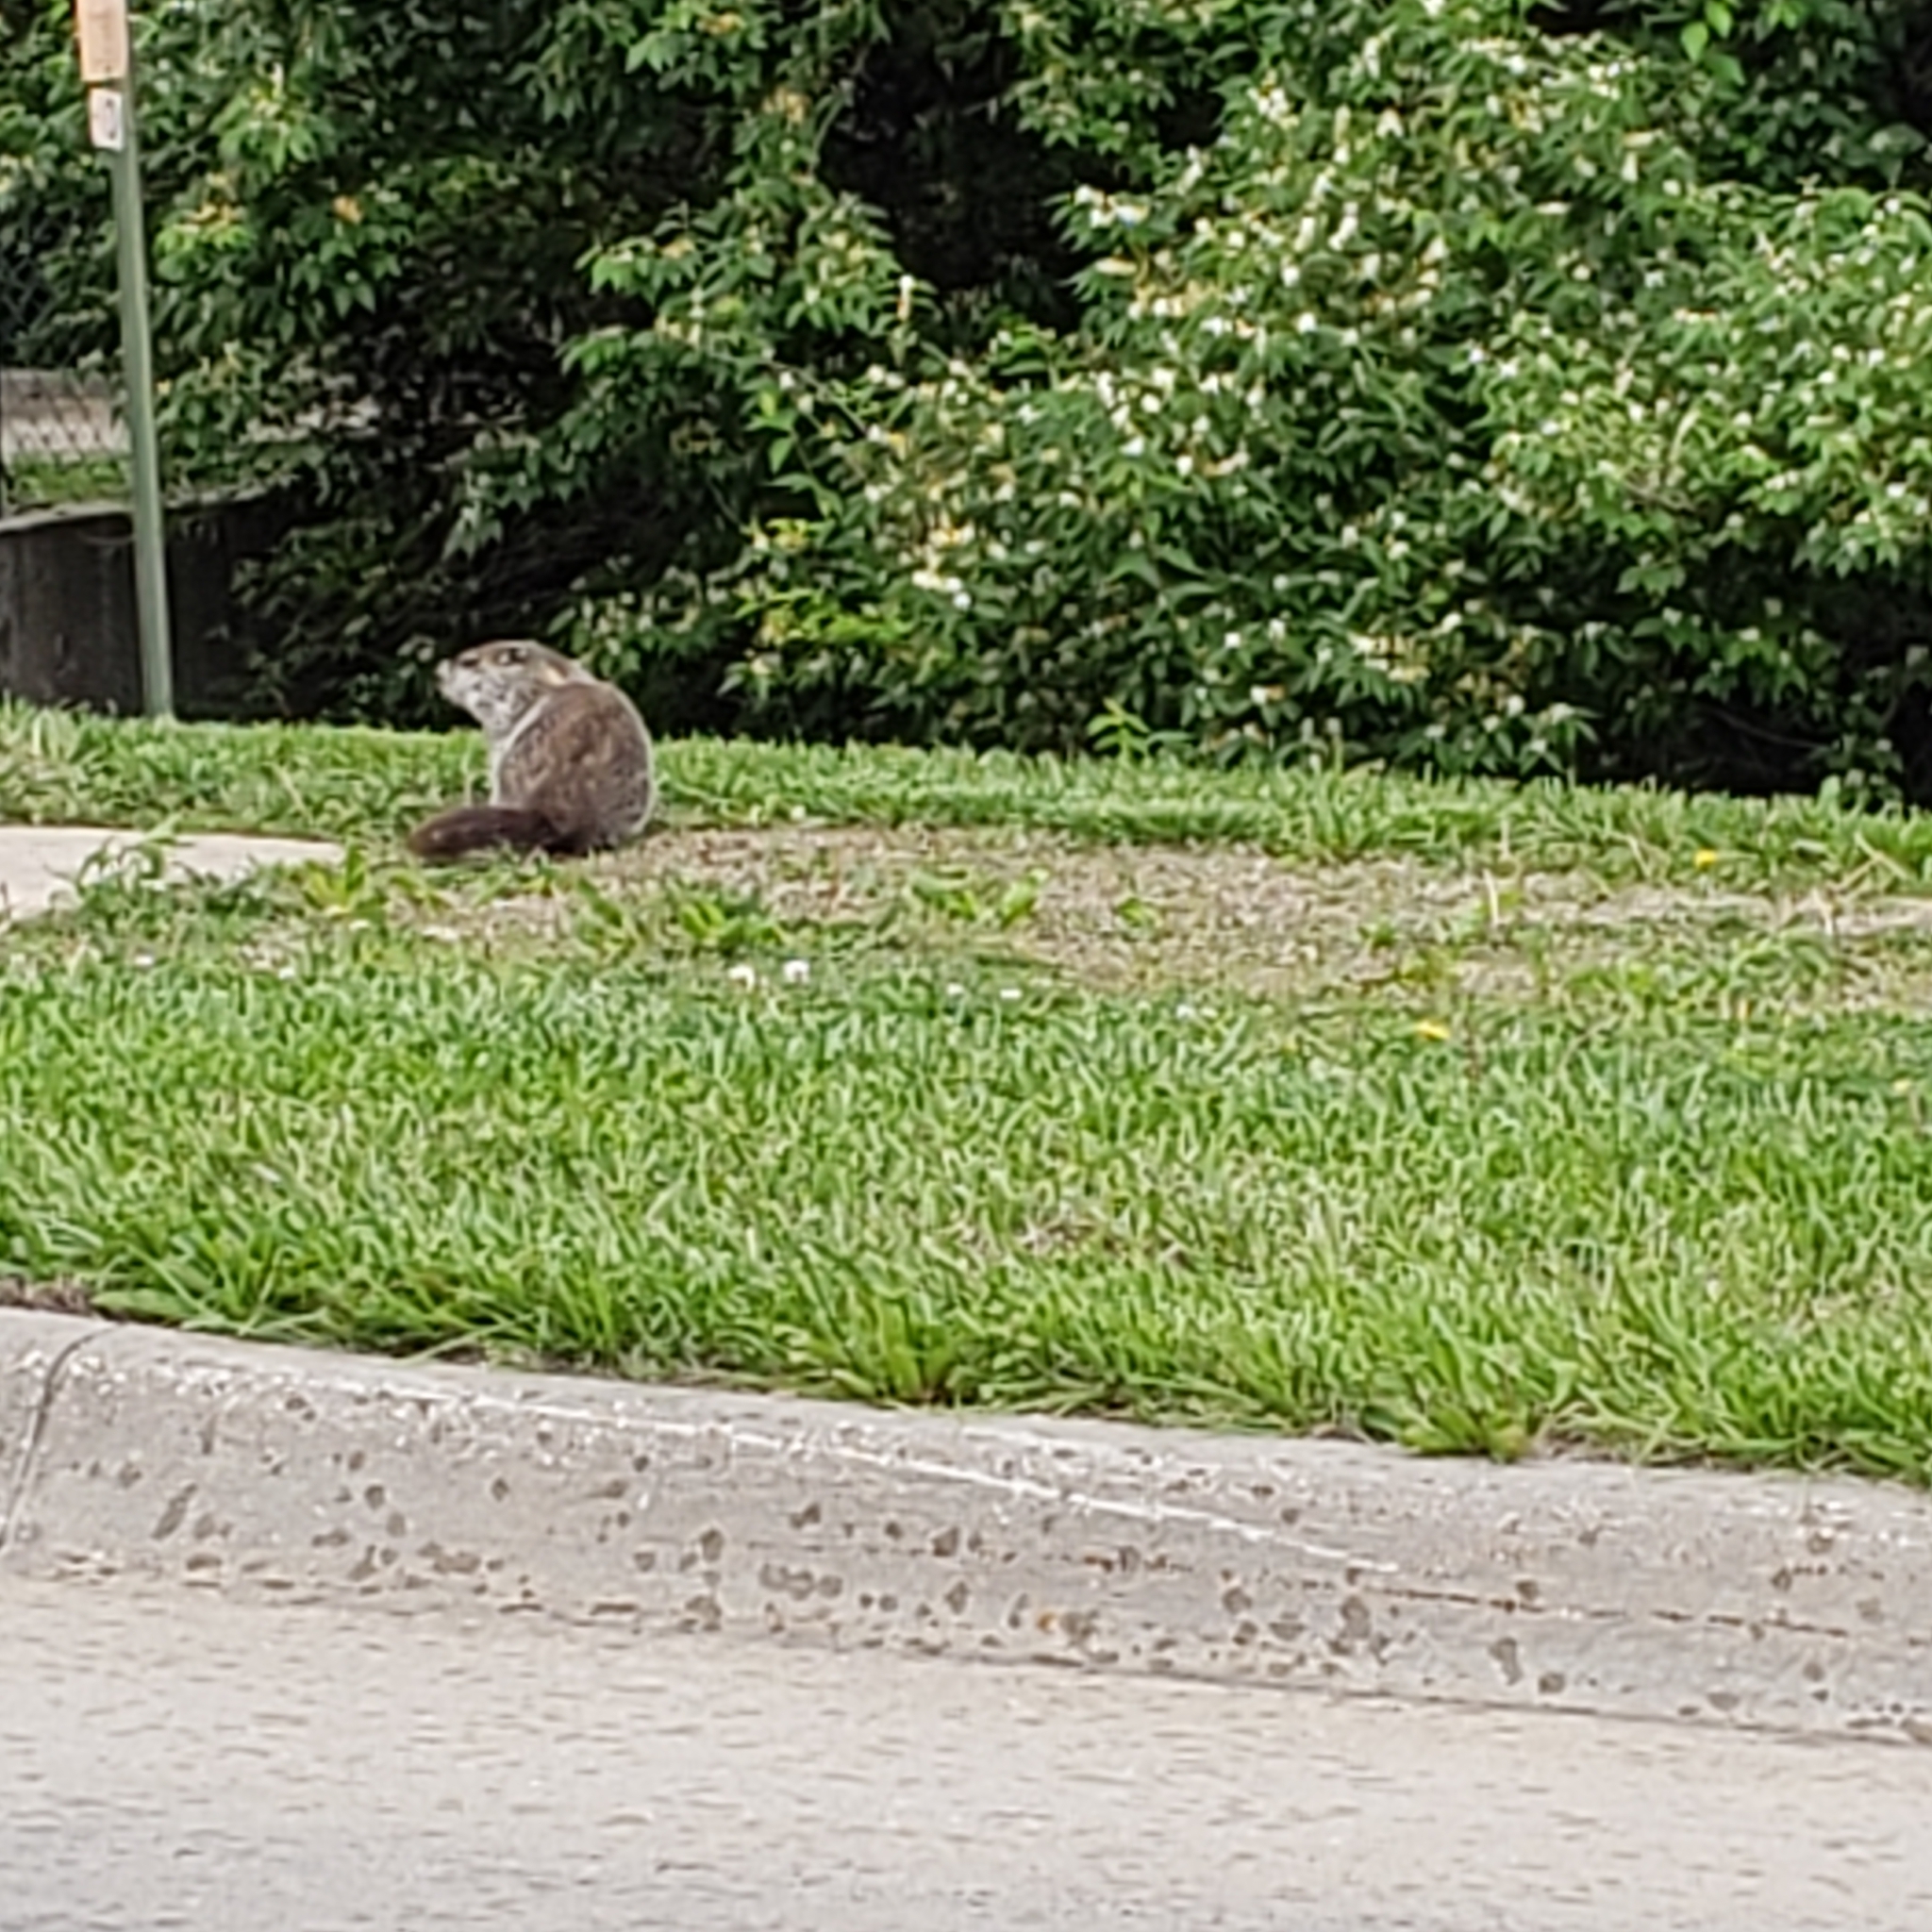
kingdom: Animalia
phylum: Chordata
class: Mammalia
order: Rodentia
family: Sciuridae
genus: Marmota
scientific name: Marmota monax
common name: Groundhog
